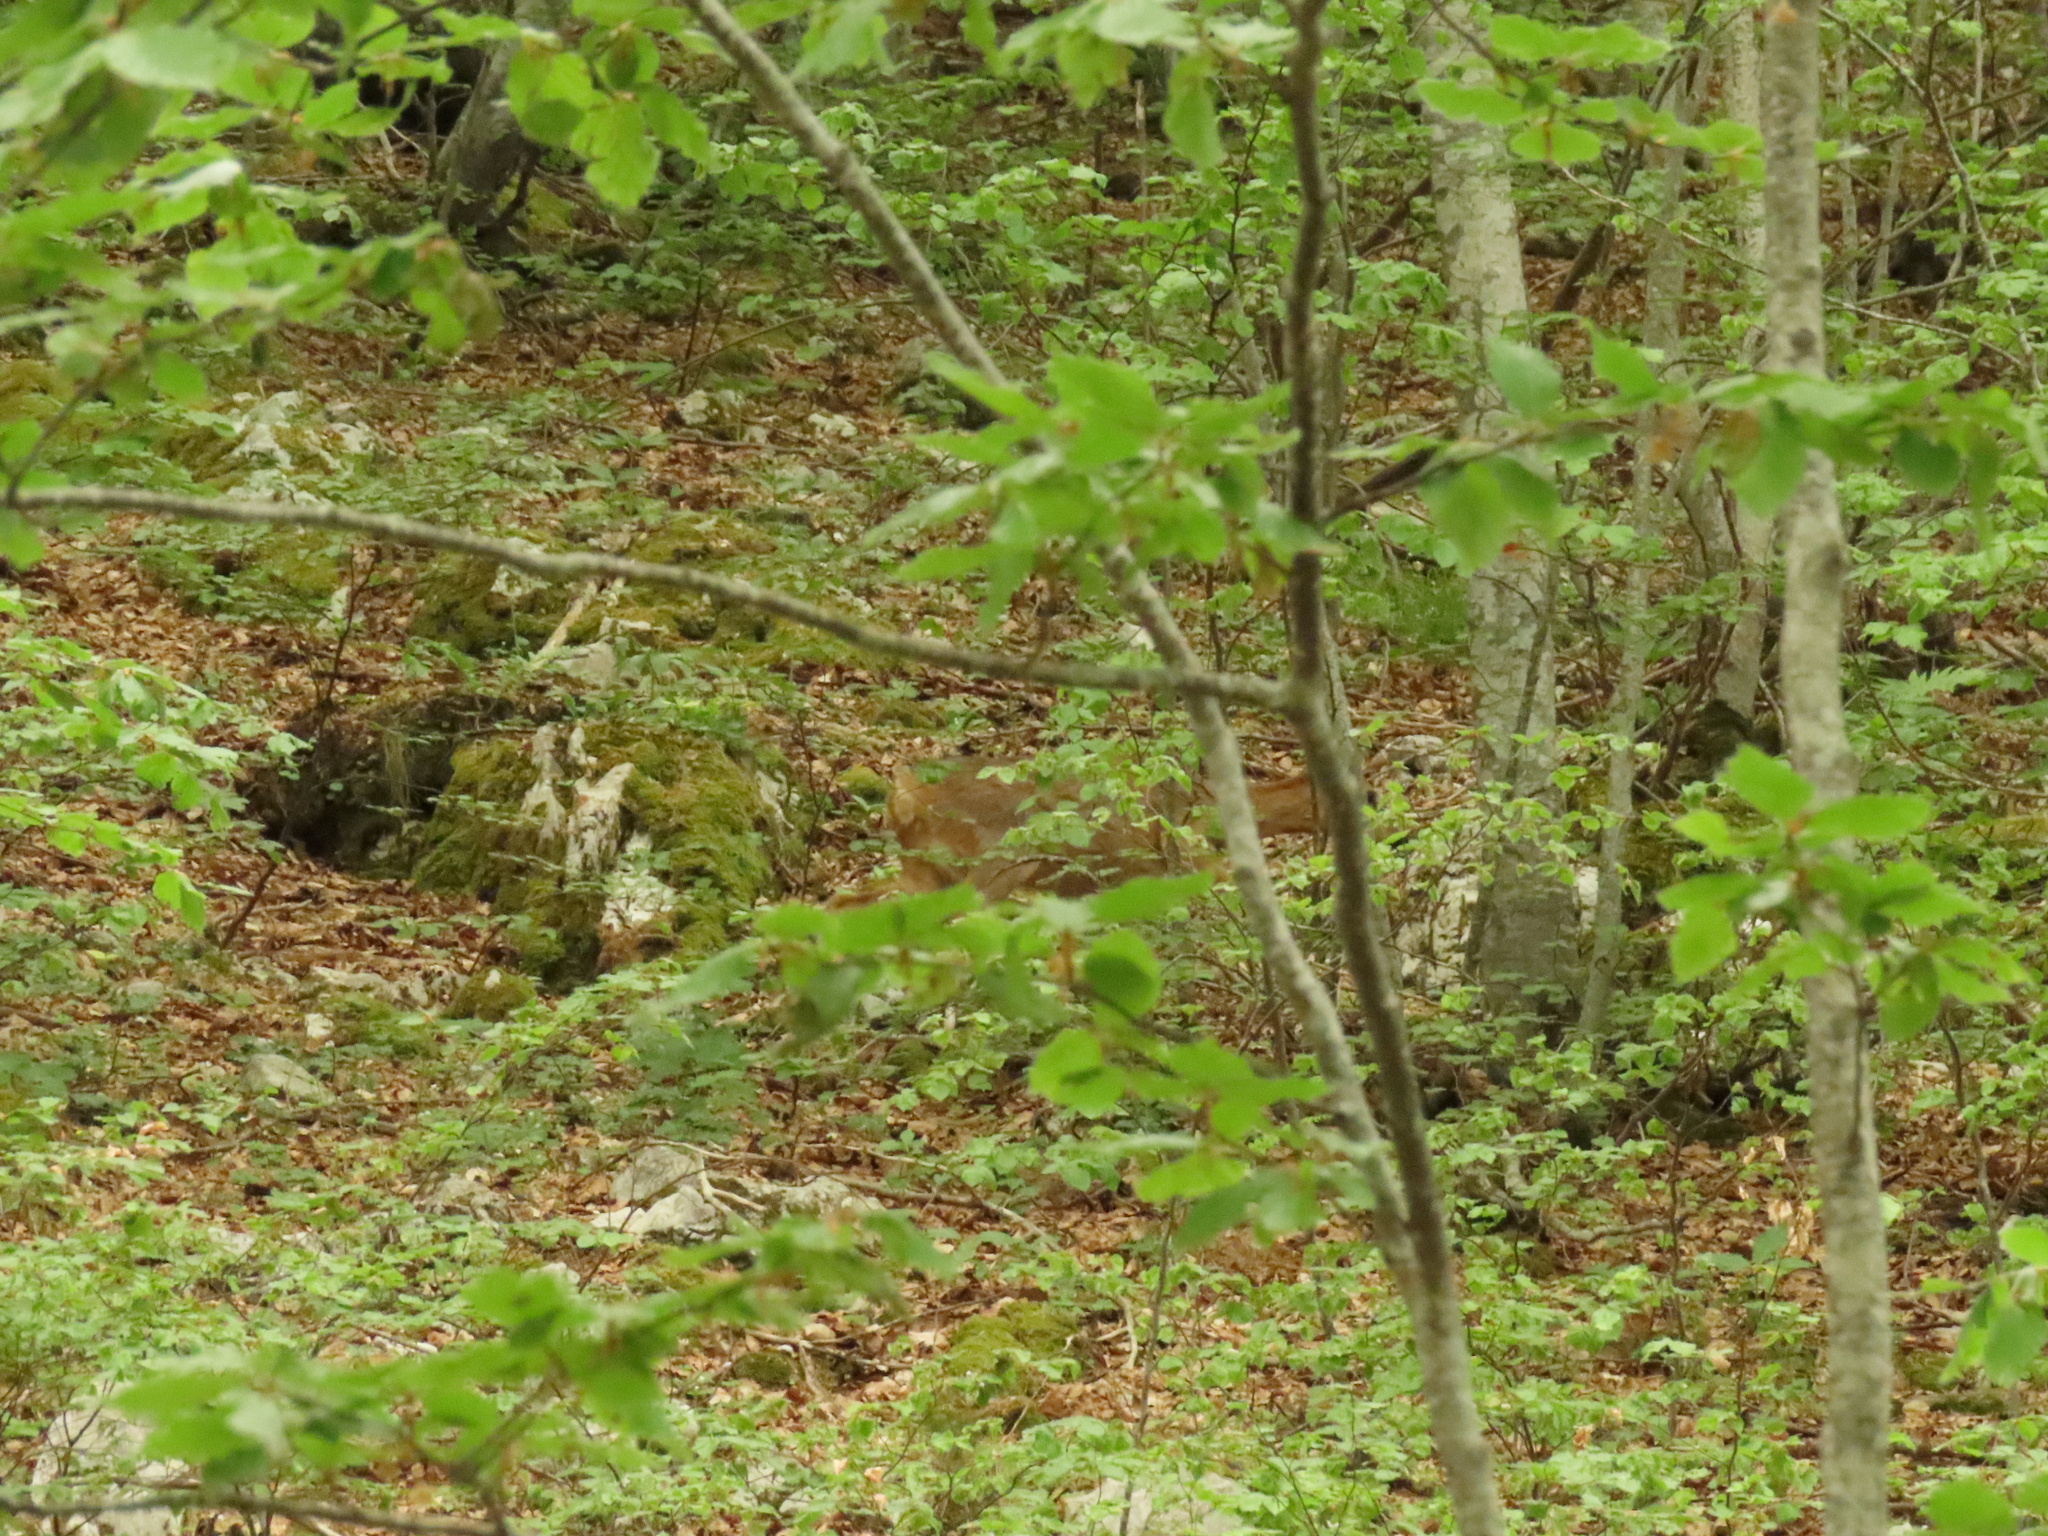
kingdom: Animalia
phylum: Chordata
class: Mammalia
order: Artiodactyla
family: Cervidae
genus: Capreolus
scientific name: Capreolus capreolus
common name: Western roe deer
